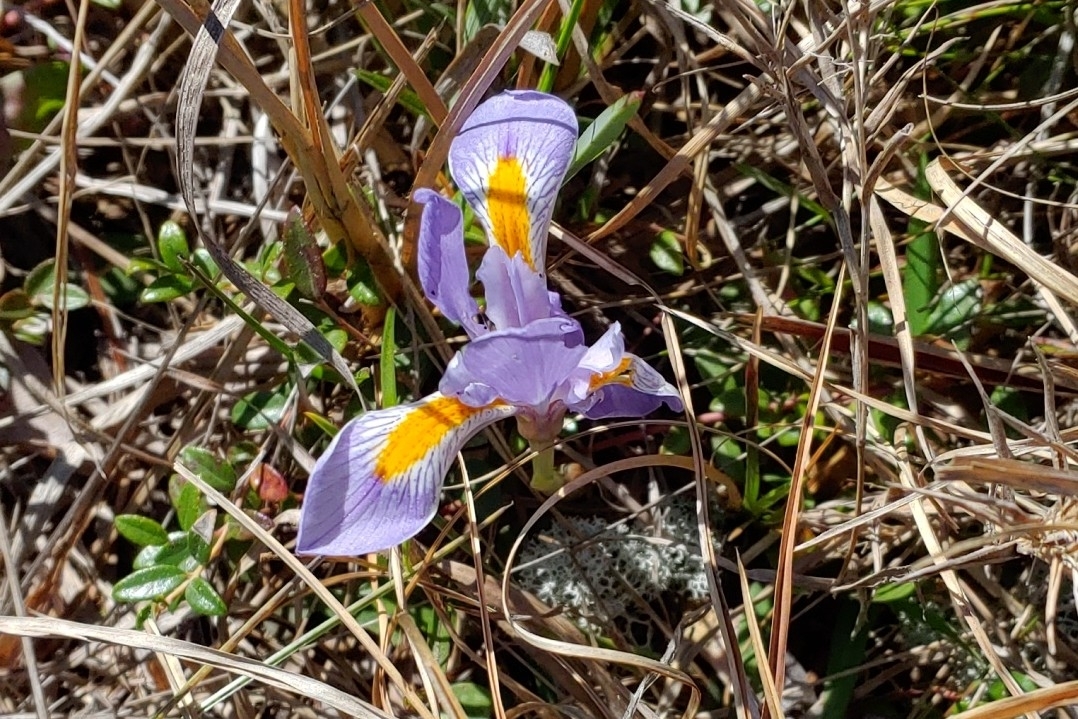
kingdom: Plantae
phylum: Tracheophyta
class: Liliopsida
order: Asparagales
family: Iridaceae
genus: Iris
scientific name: Iris verna
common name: Dwarf iris
